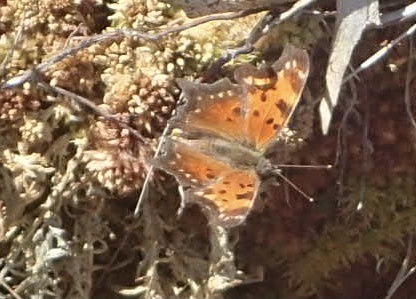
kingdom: Animalia
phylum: Arthropoda
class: Insecta
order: Lepidoptera
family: Nymphalidae
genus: Polygonia
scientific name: Polygonia progne
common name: Gray comma
